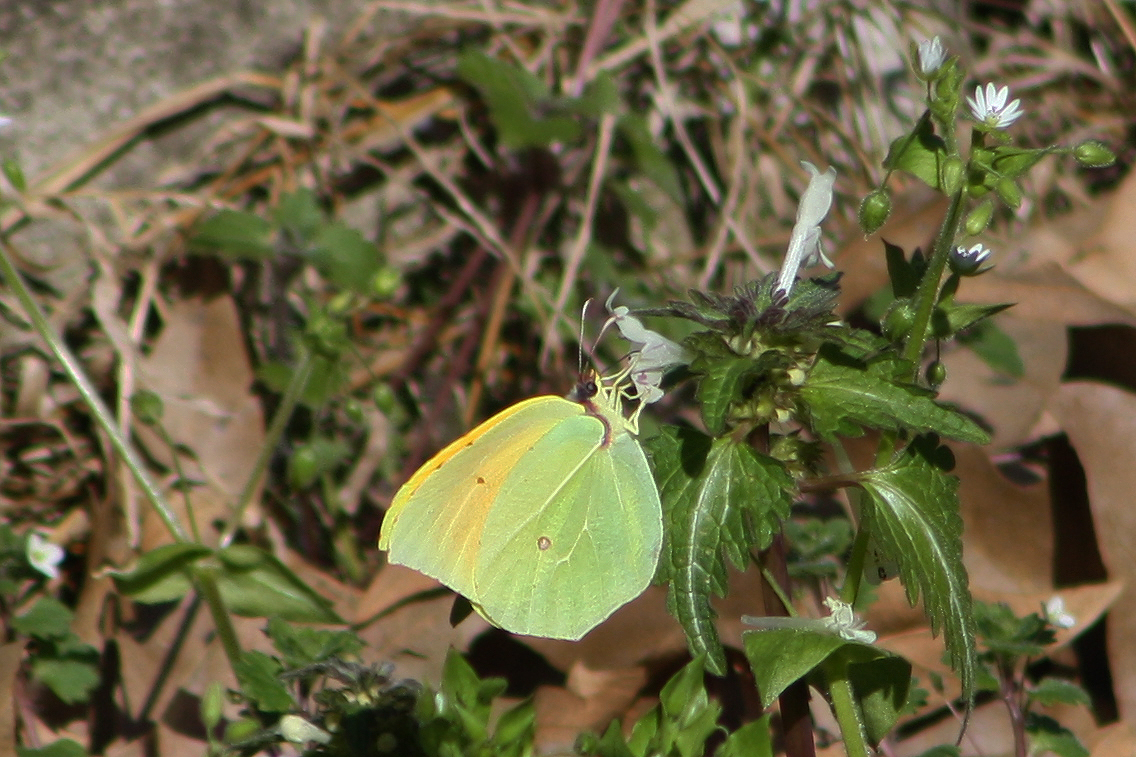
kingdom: Animalia
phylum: Arthropoda
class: Insecta
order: Lepidoptera
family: Pieridae
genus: Gonepteryx
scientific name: Gonepteryx cleopatra
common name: Cleopatra
